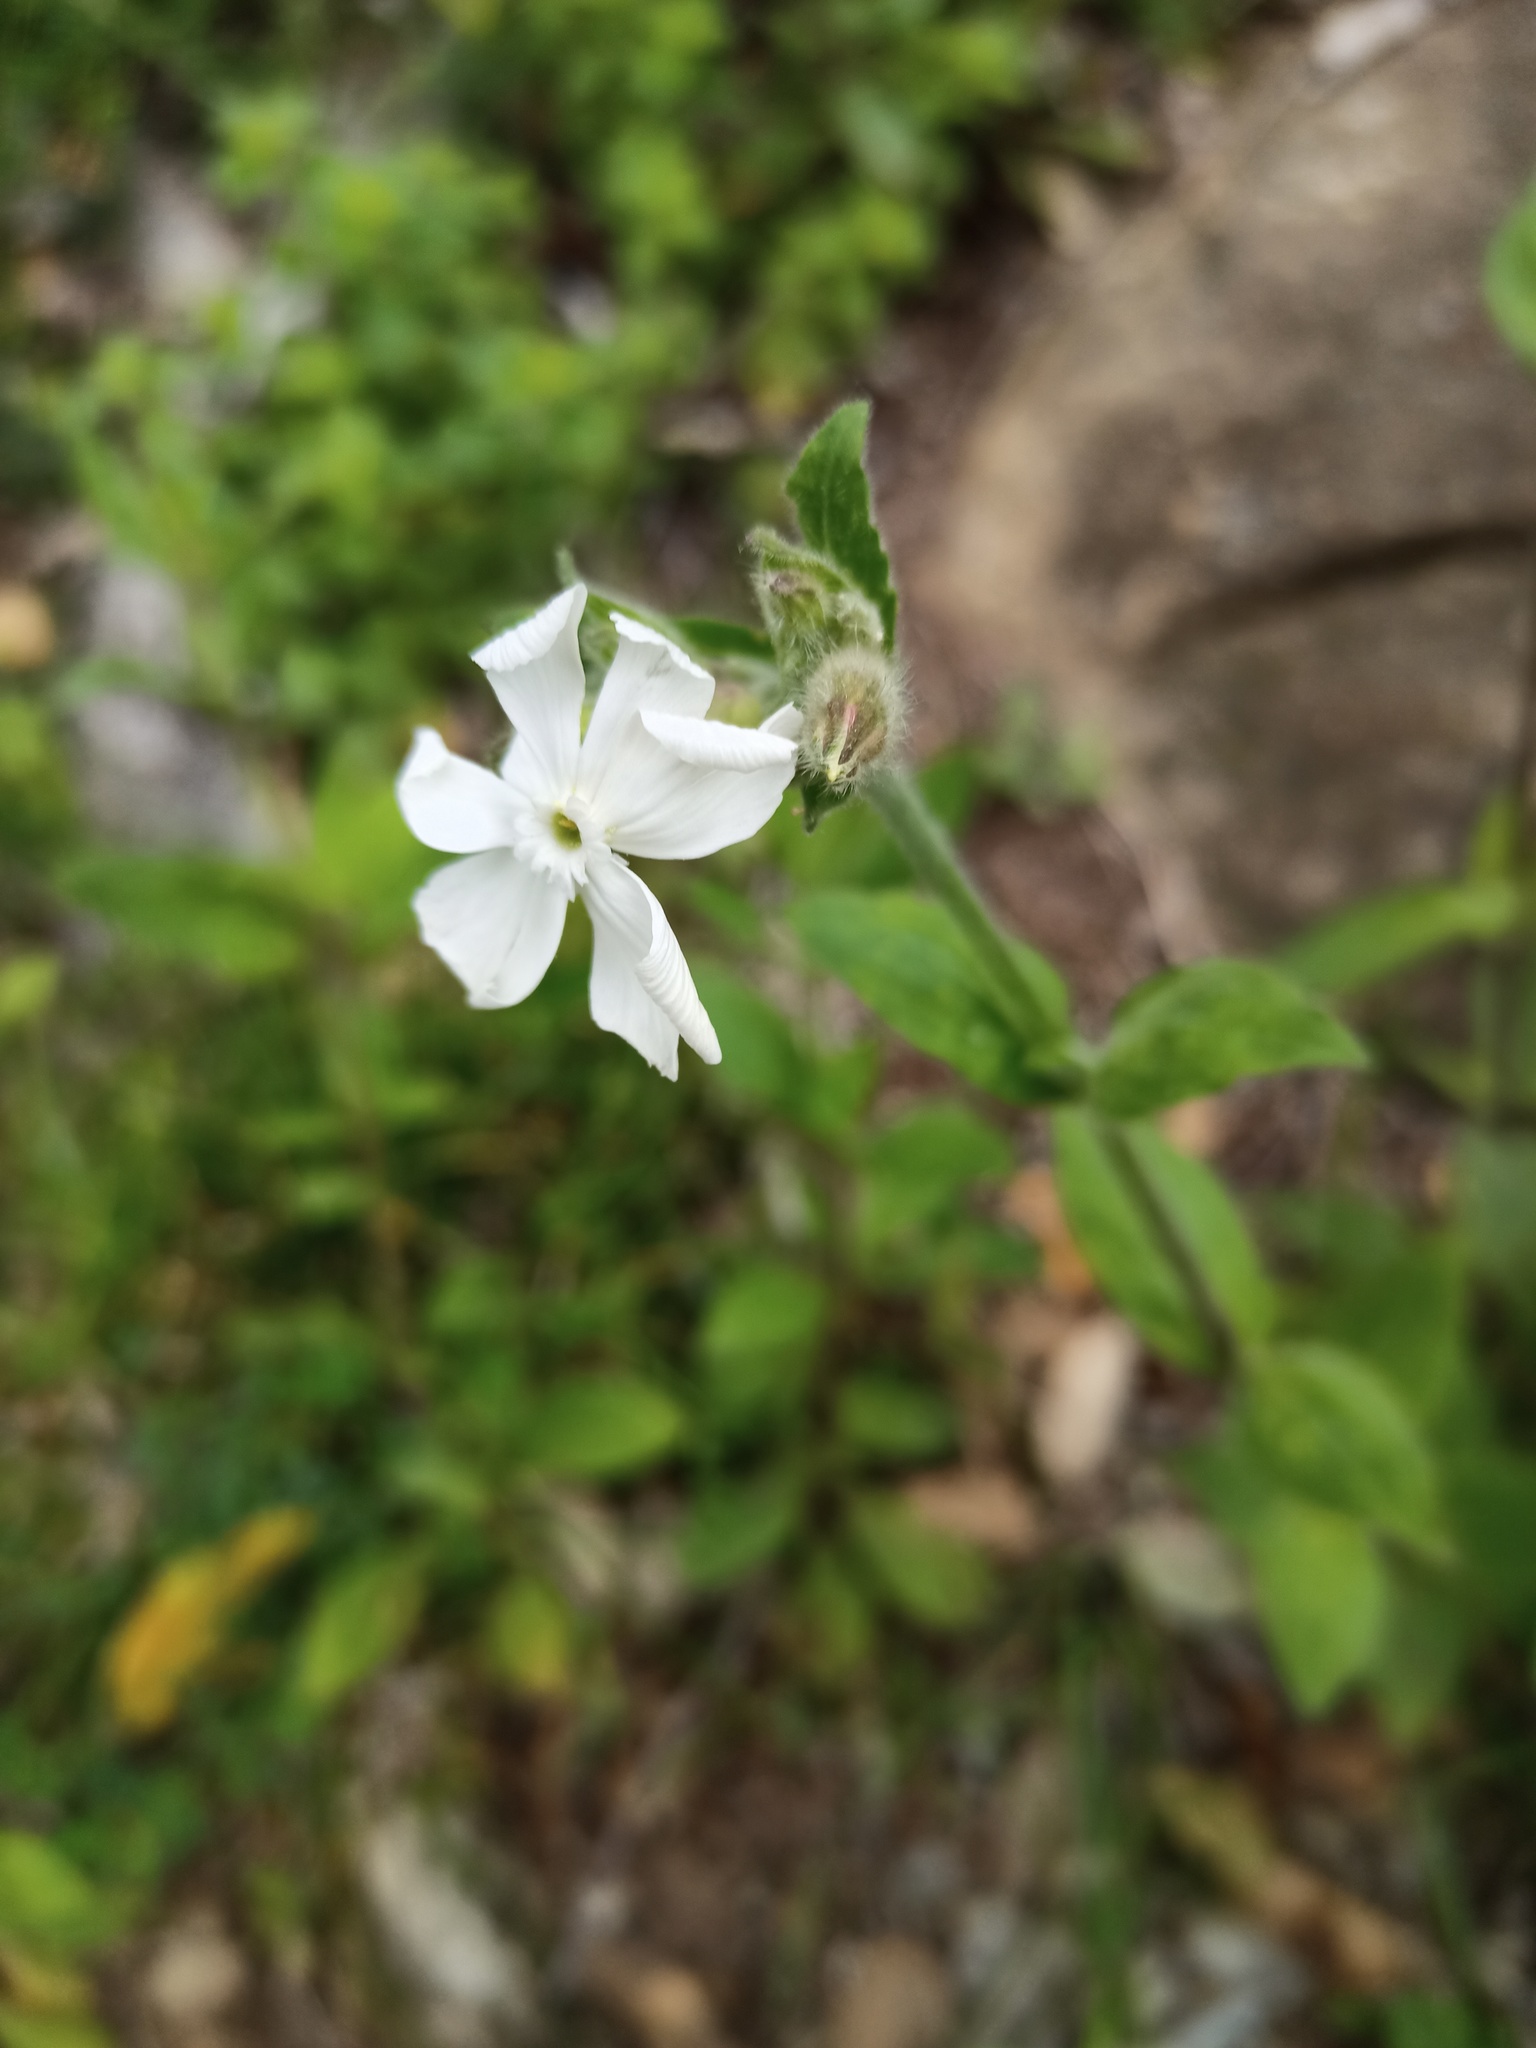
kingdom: Plantae
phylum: Tracheophyta
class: Magnoliopsida
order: Caryophyllales
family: Caryophyllaceae
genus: Silene
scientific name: Silene latifolia
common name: White campion
